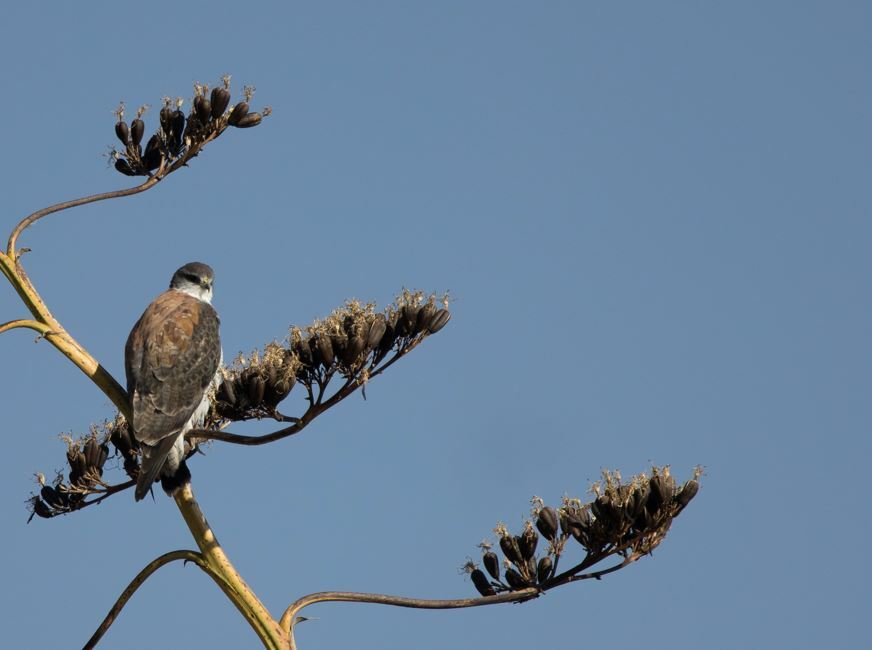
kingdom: Animalia
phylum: Chordata
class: Aves
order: Accipitriformes
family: Accipitridae
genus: Buteo
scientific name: Buteo polyosoma
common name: Variable hawk
